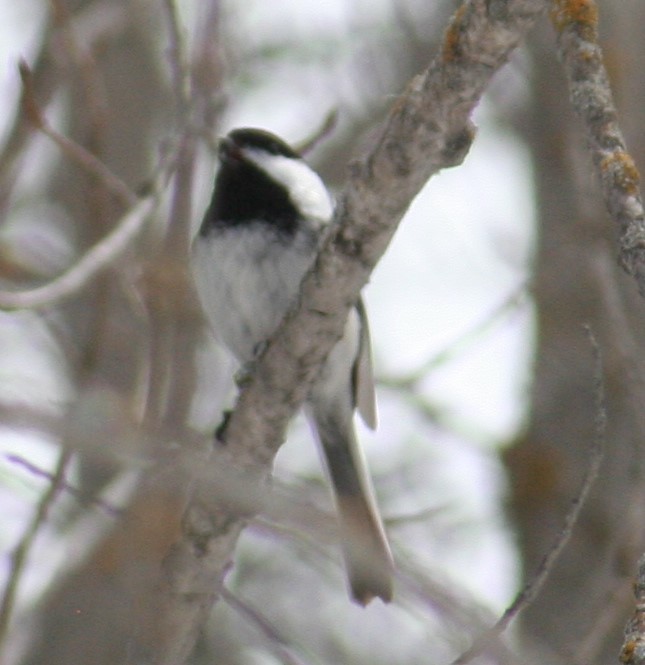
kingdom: Animalia
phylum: Chordata
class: Aves
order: Passeriformes
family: Paridae
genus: Poecile
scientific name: Poecile atricapillus
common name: Black-capped chickadee
